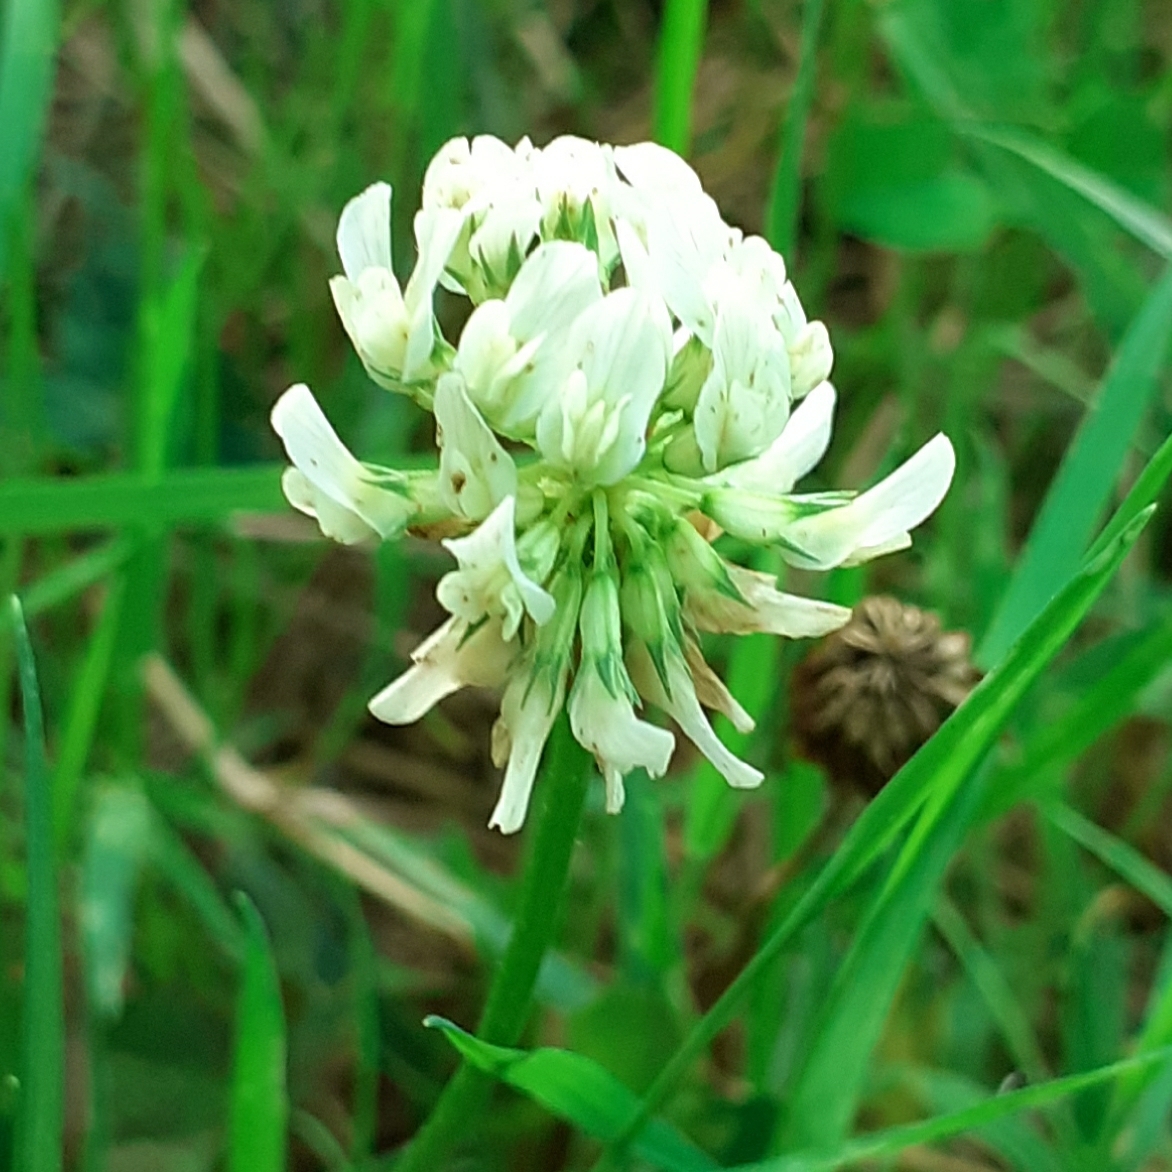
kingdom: Plantae
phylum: Tracheophyta
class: Magnoliopsida
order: Fabales
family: Fabaceae
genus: Trifolium
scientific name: Trifolium repens
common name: White clover
